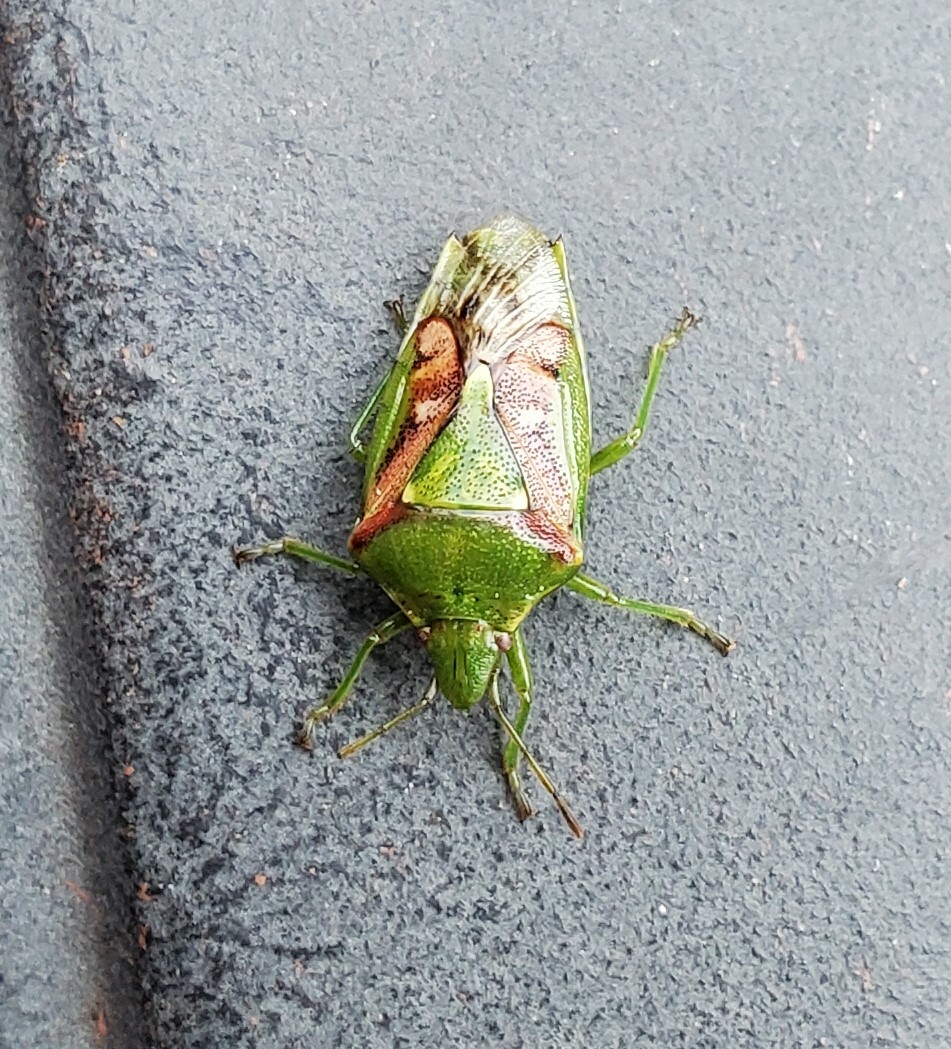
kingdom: Animalia
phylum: Arthropoda
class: Insecta
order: Hemiptera
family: Acanthosomatidae
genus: Cyphostethus
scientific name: Cyphostethus tristriatus
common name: Juniper shieldbug
